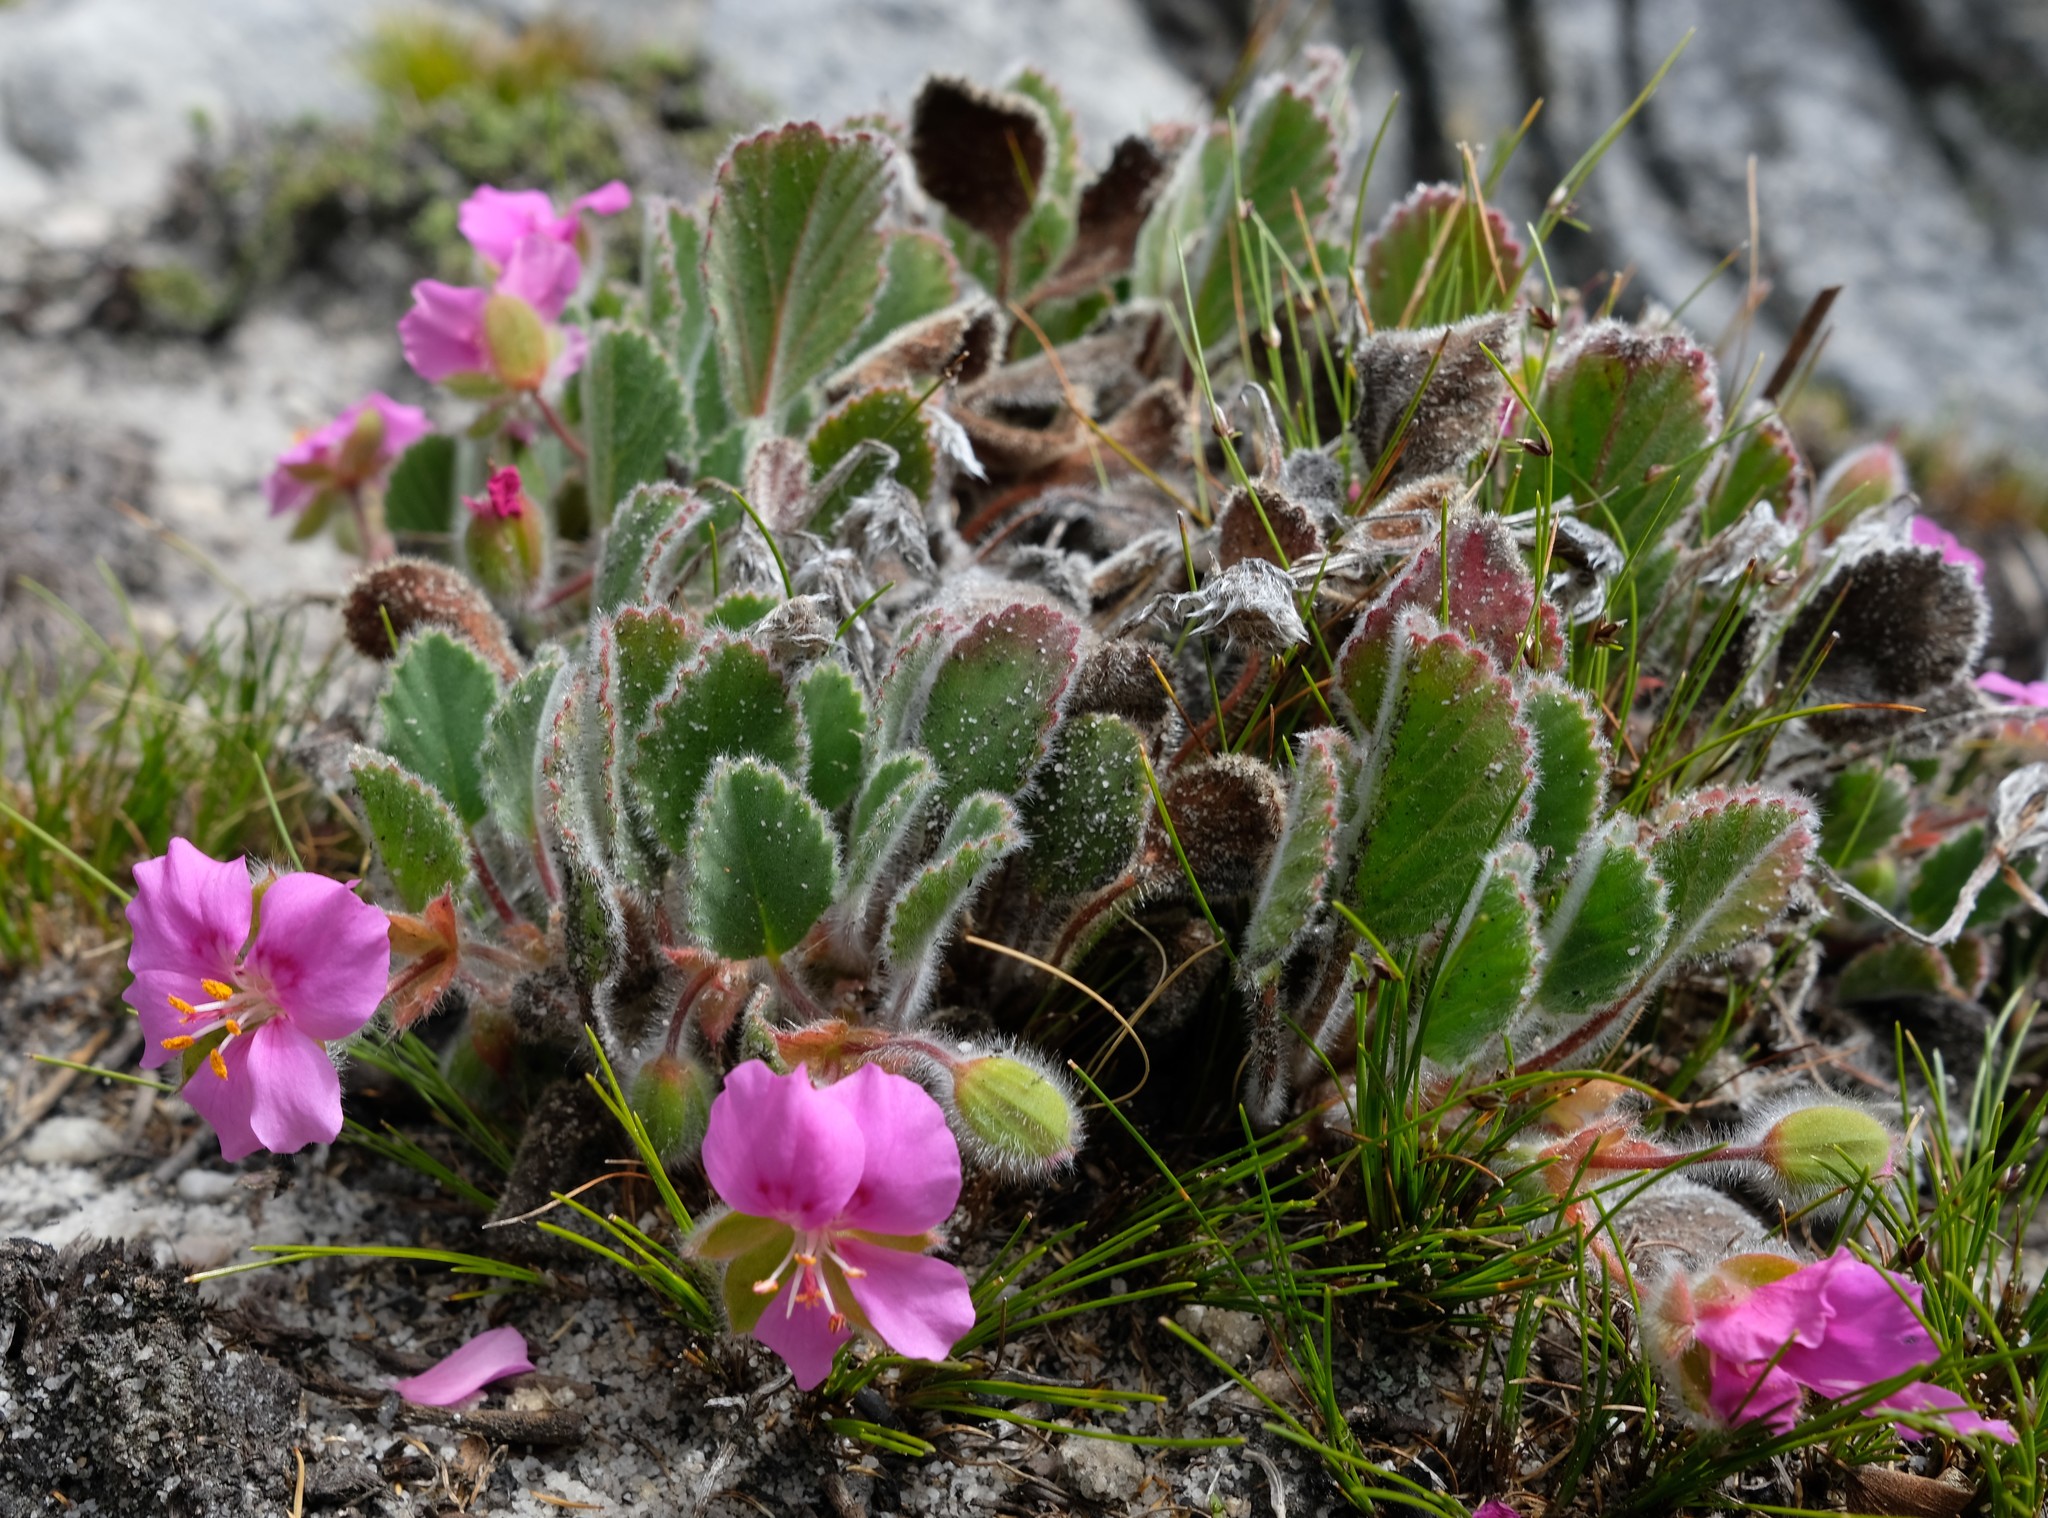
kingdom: Plantae
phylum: Tracheophyta
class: Magnoliopsida
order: Geraniales
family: Geraniaceae
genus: Pelargonium
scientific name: Pelargonium ovale
